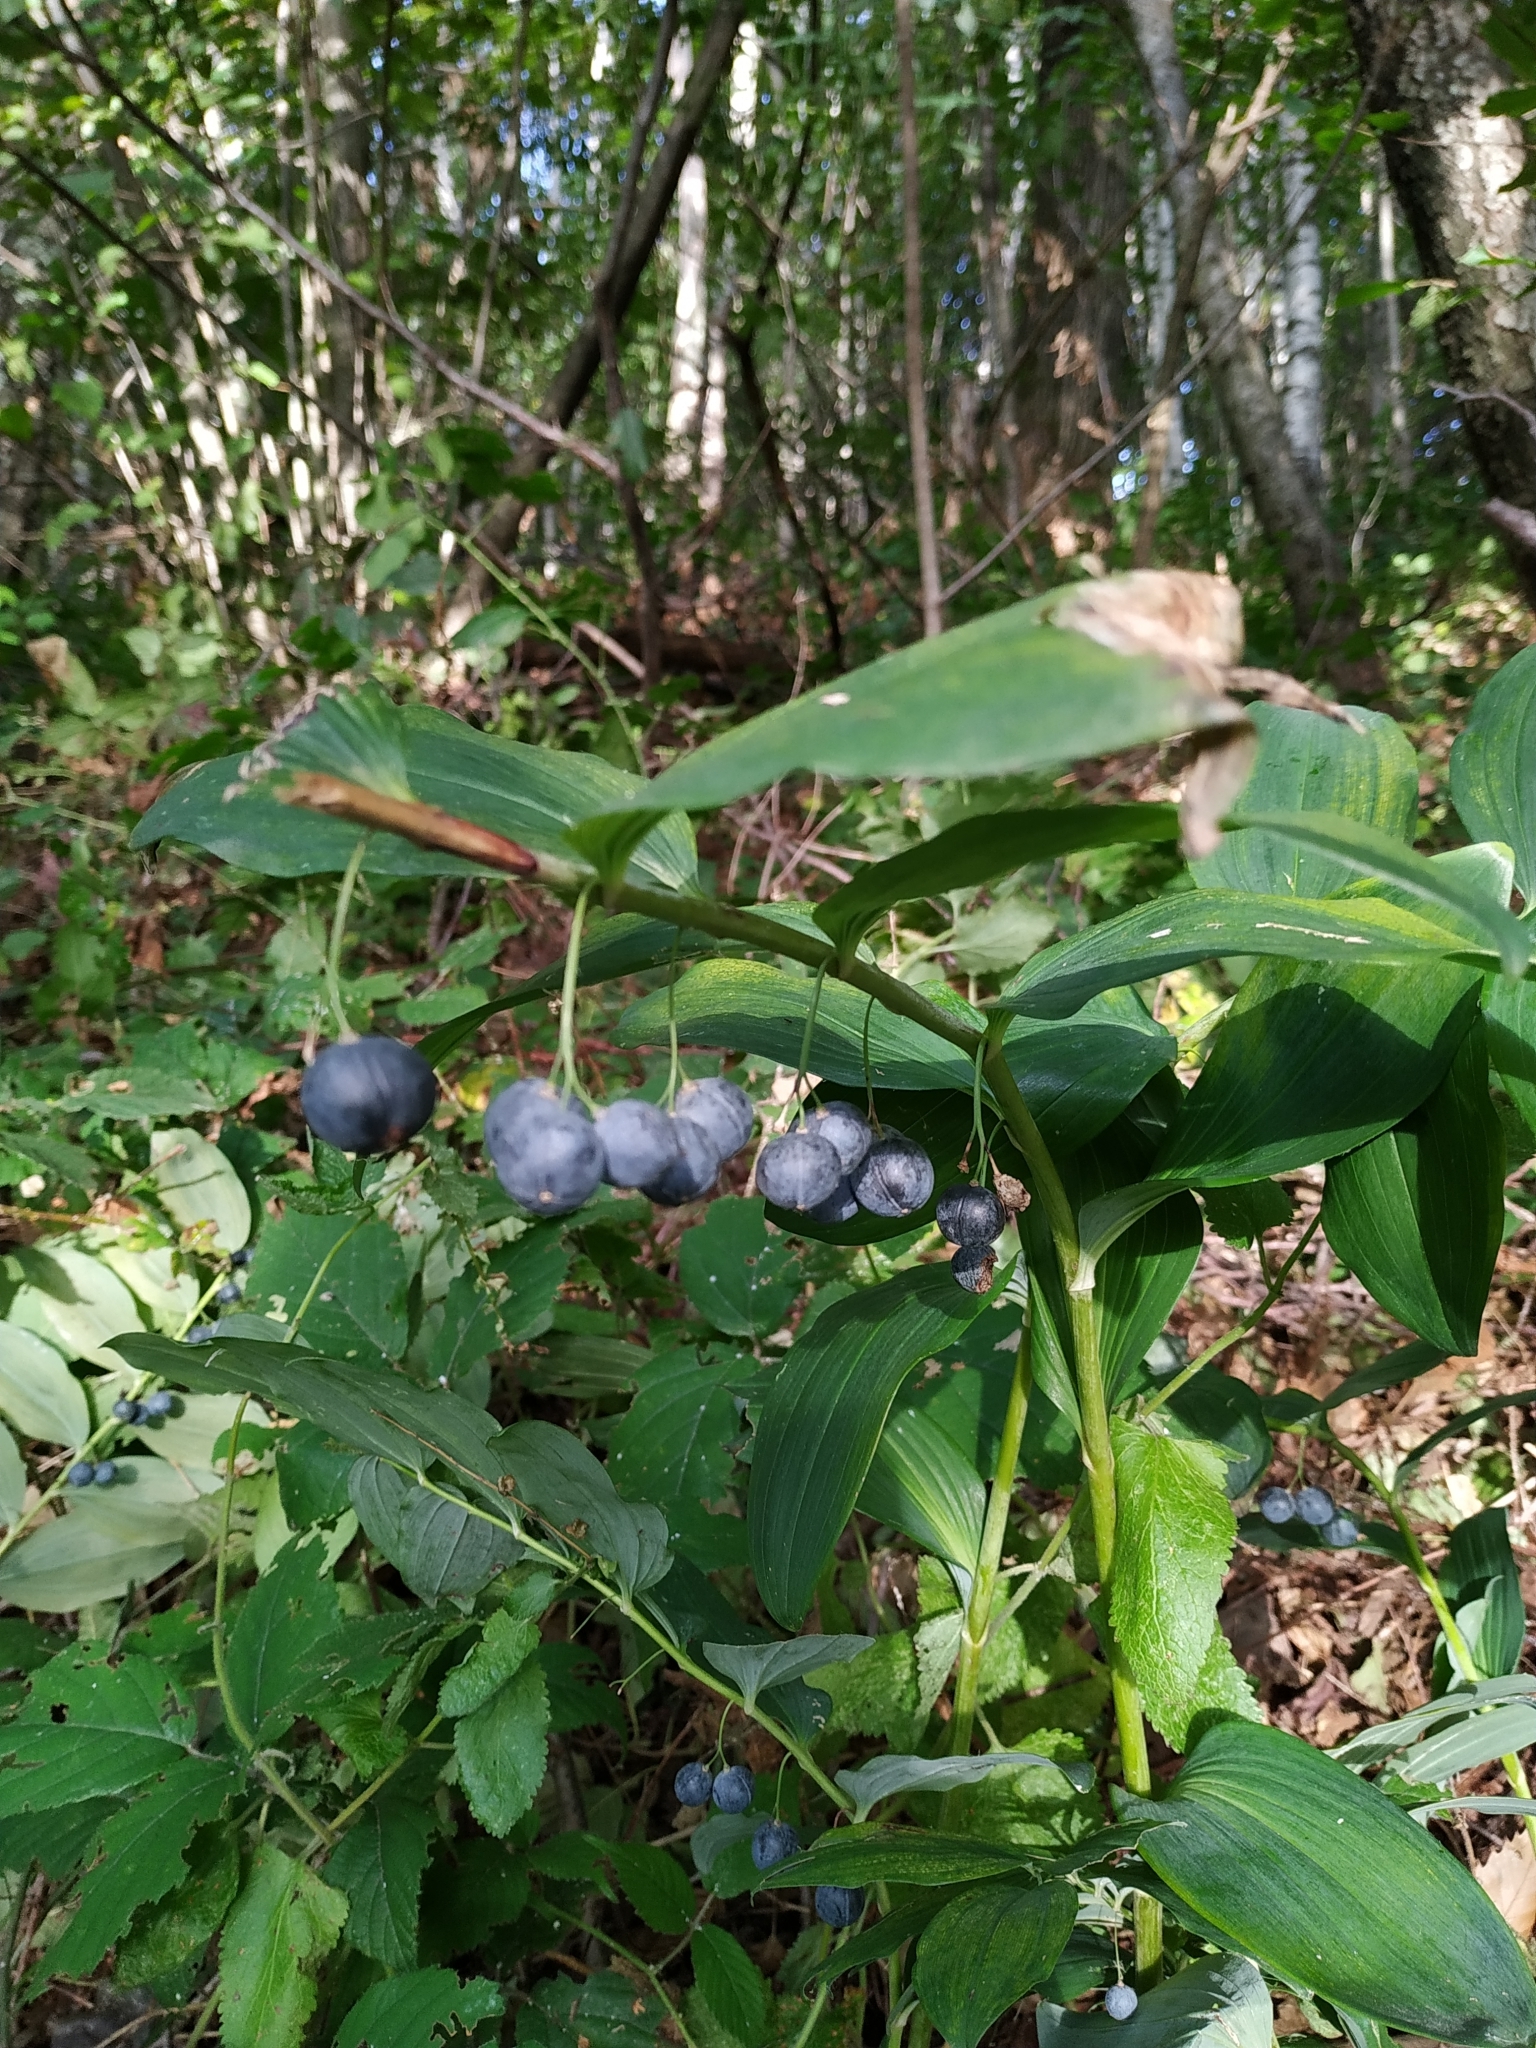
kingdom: Plantae
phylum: Tracheophyta
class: Liliopsida
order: Asparagales
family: Asparagaceae
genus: Polygonatum
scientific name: Polygonatum multiflorum
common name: Solomon's-seal
